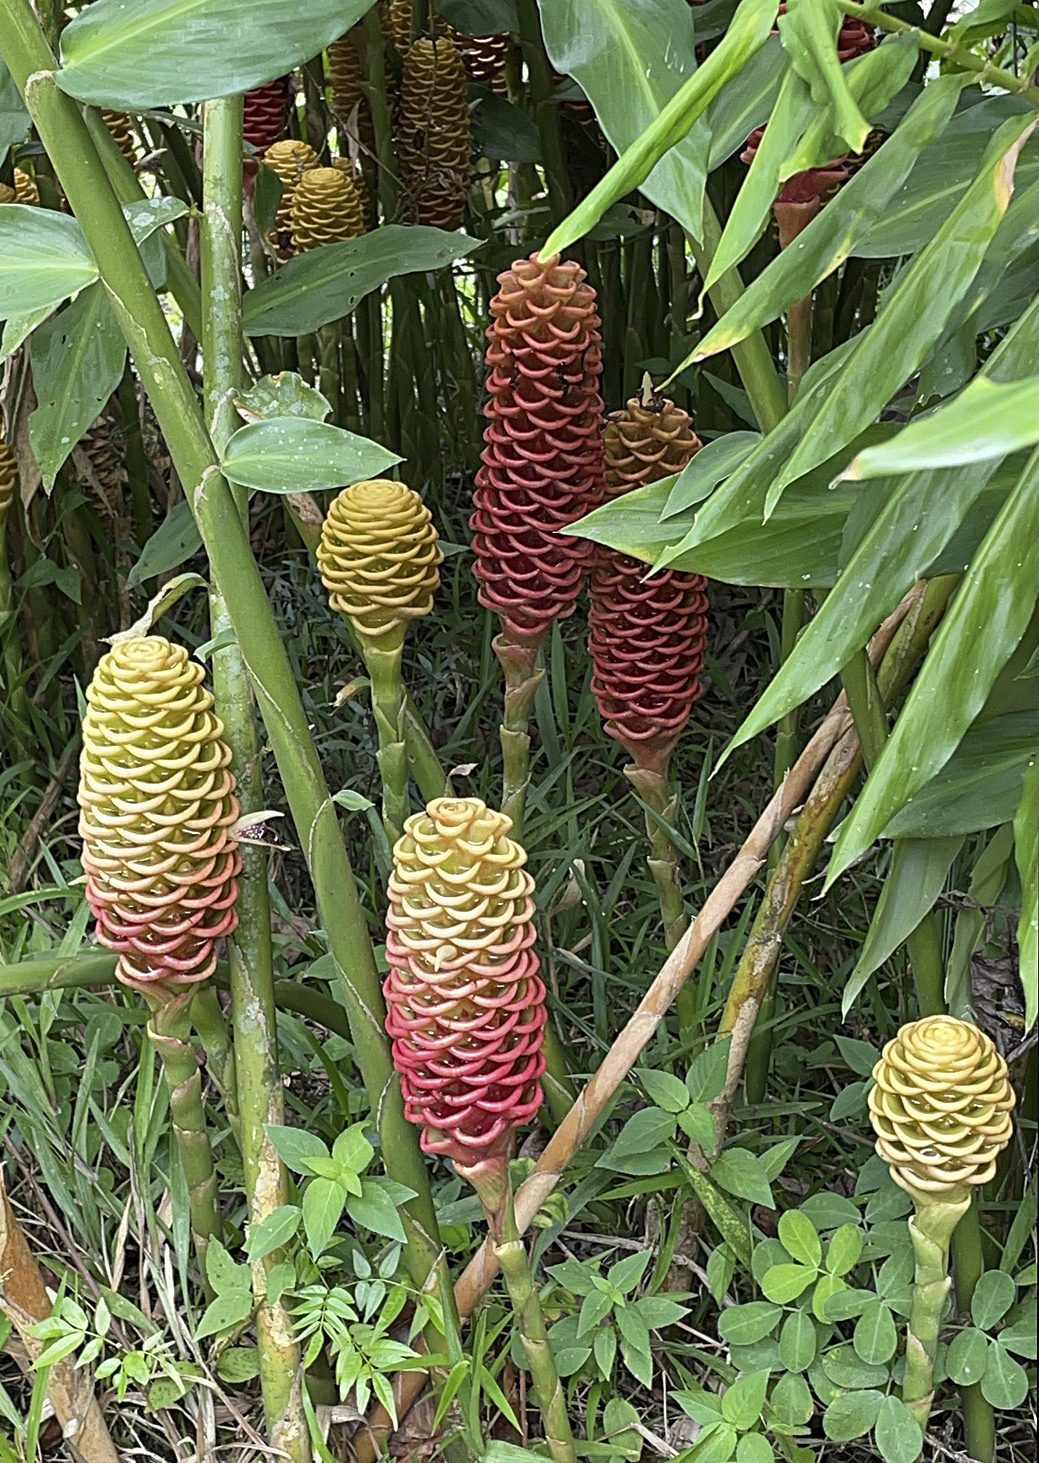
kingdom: Plantae
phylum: Tracheophyta
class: Liliopsida
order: Zingiberales
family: Zingiberaceae
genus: Zingiber
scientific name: Zingiber spectabile
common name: Beehive ginger
